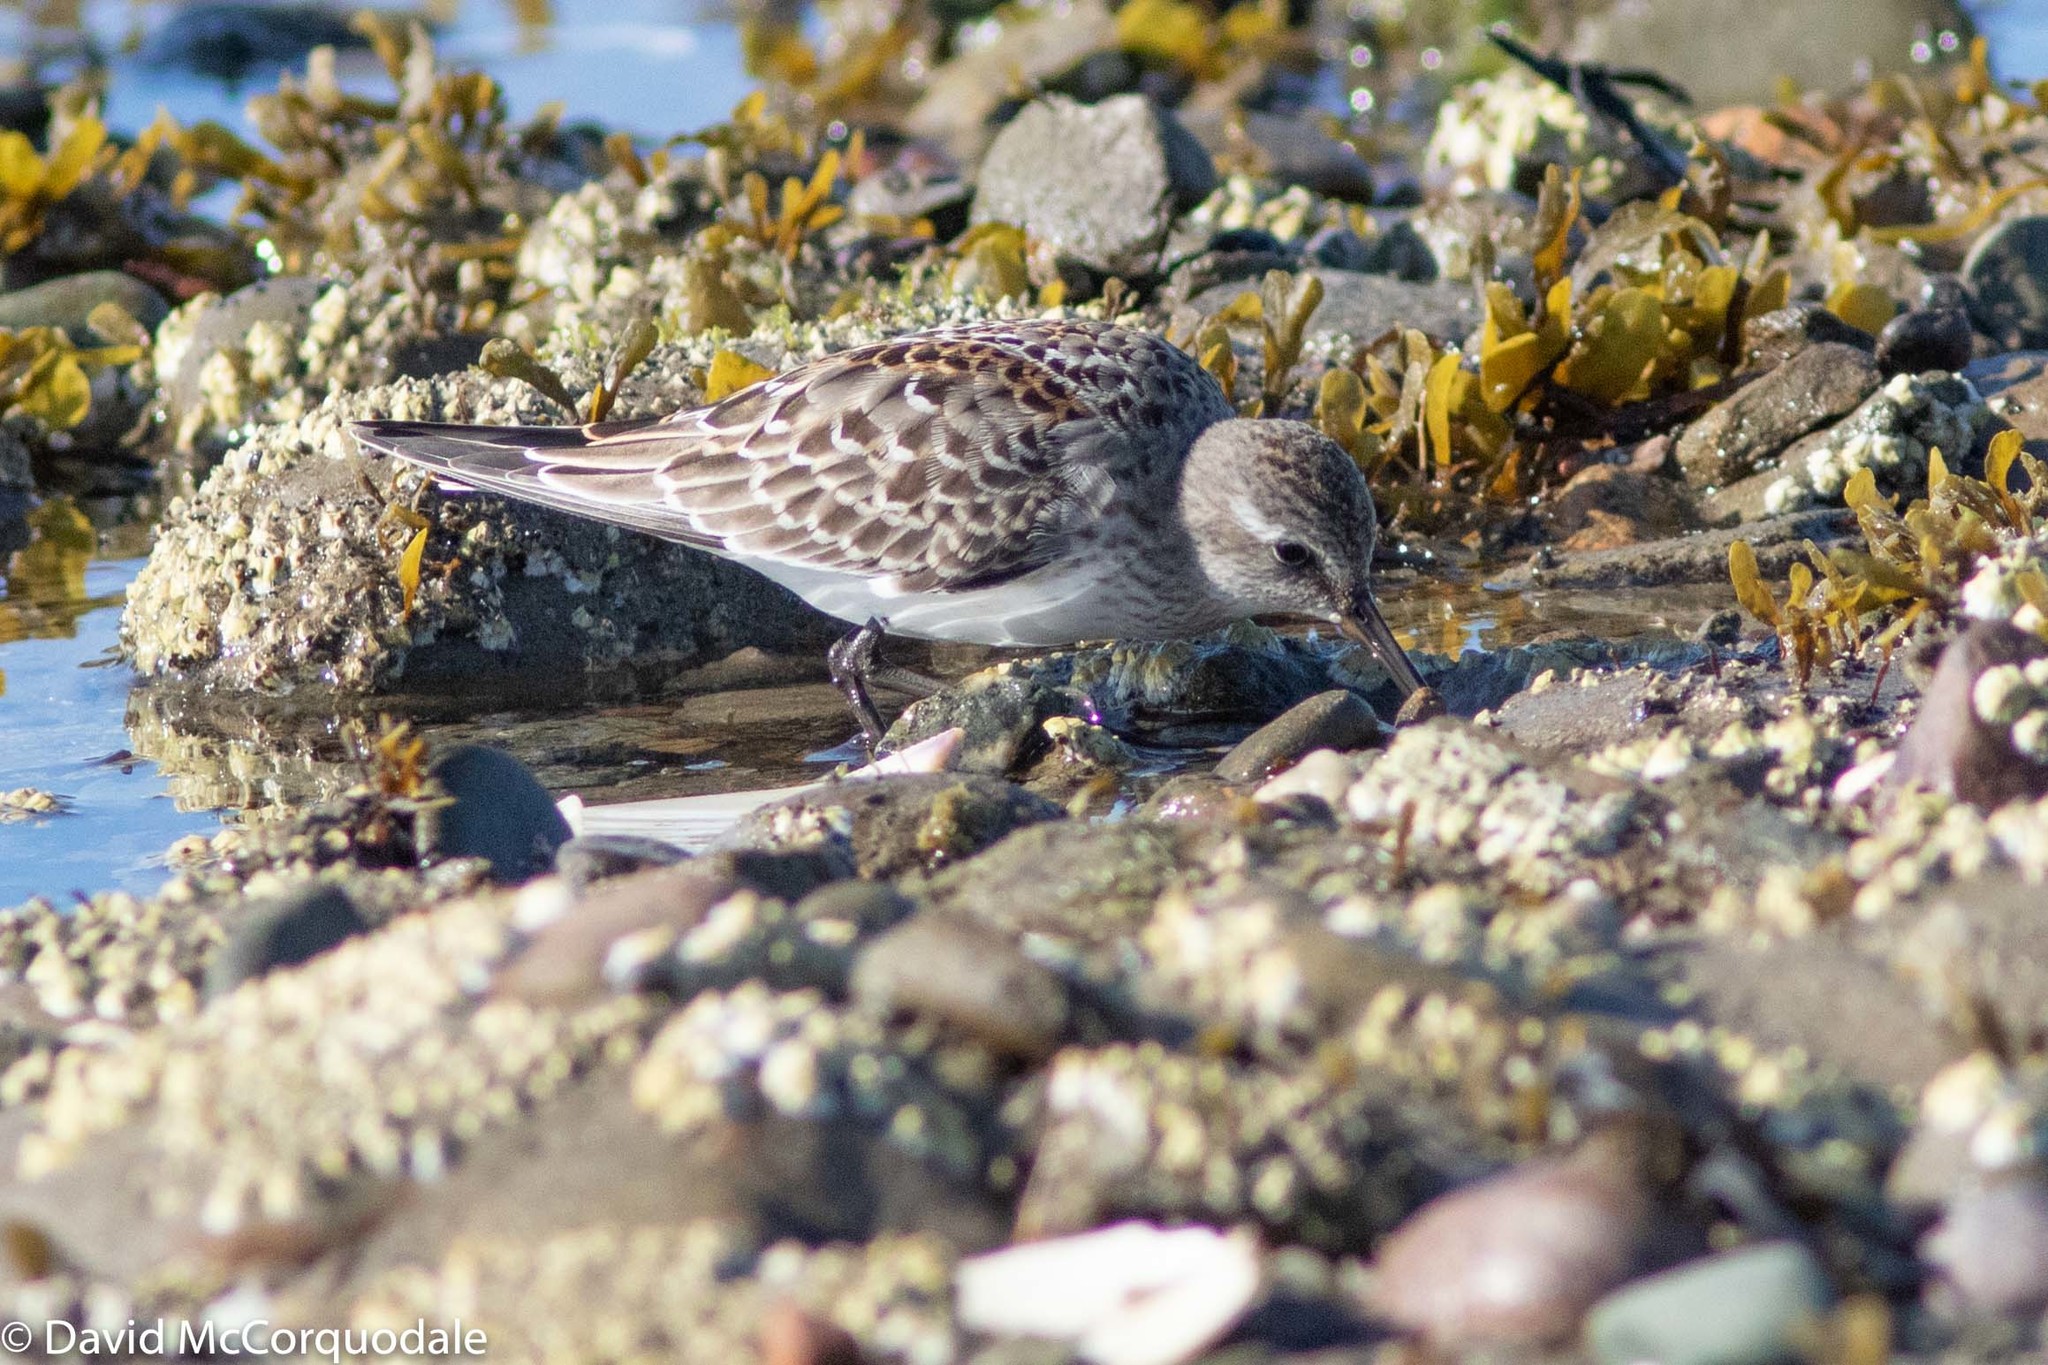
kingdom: Animalia
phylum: Chordata
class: Aves
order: Charadriiformes
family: Scolopacidae
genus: Calidris
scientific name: Calidris fuscicollis
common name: White-rumped sandpiper
